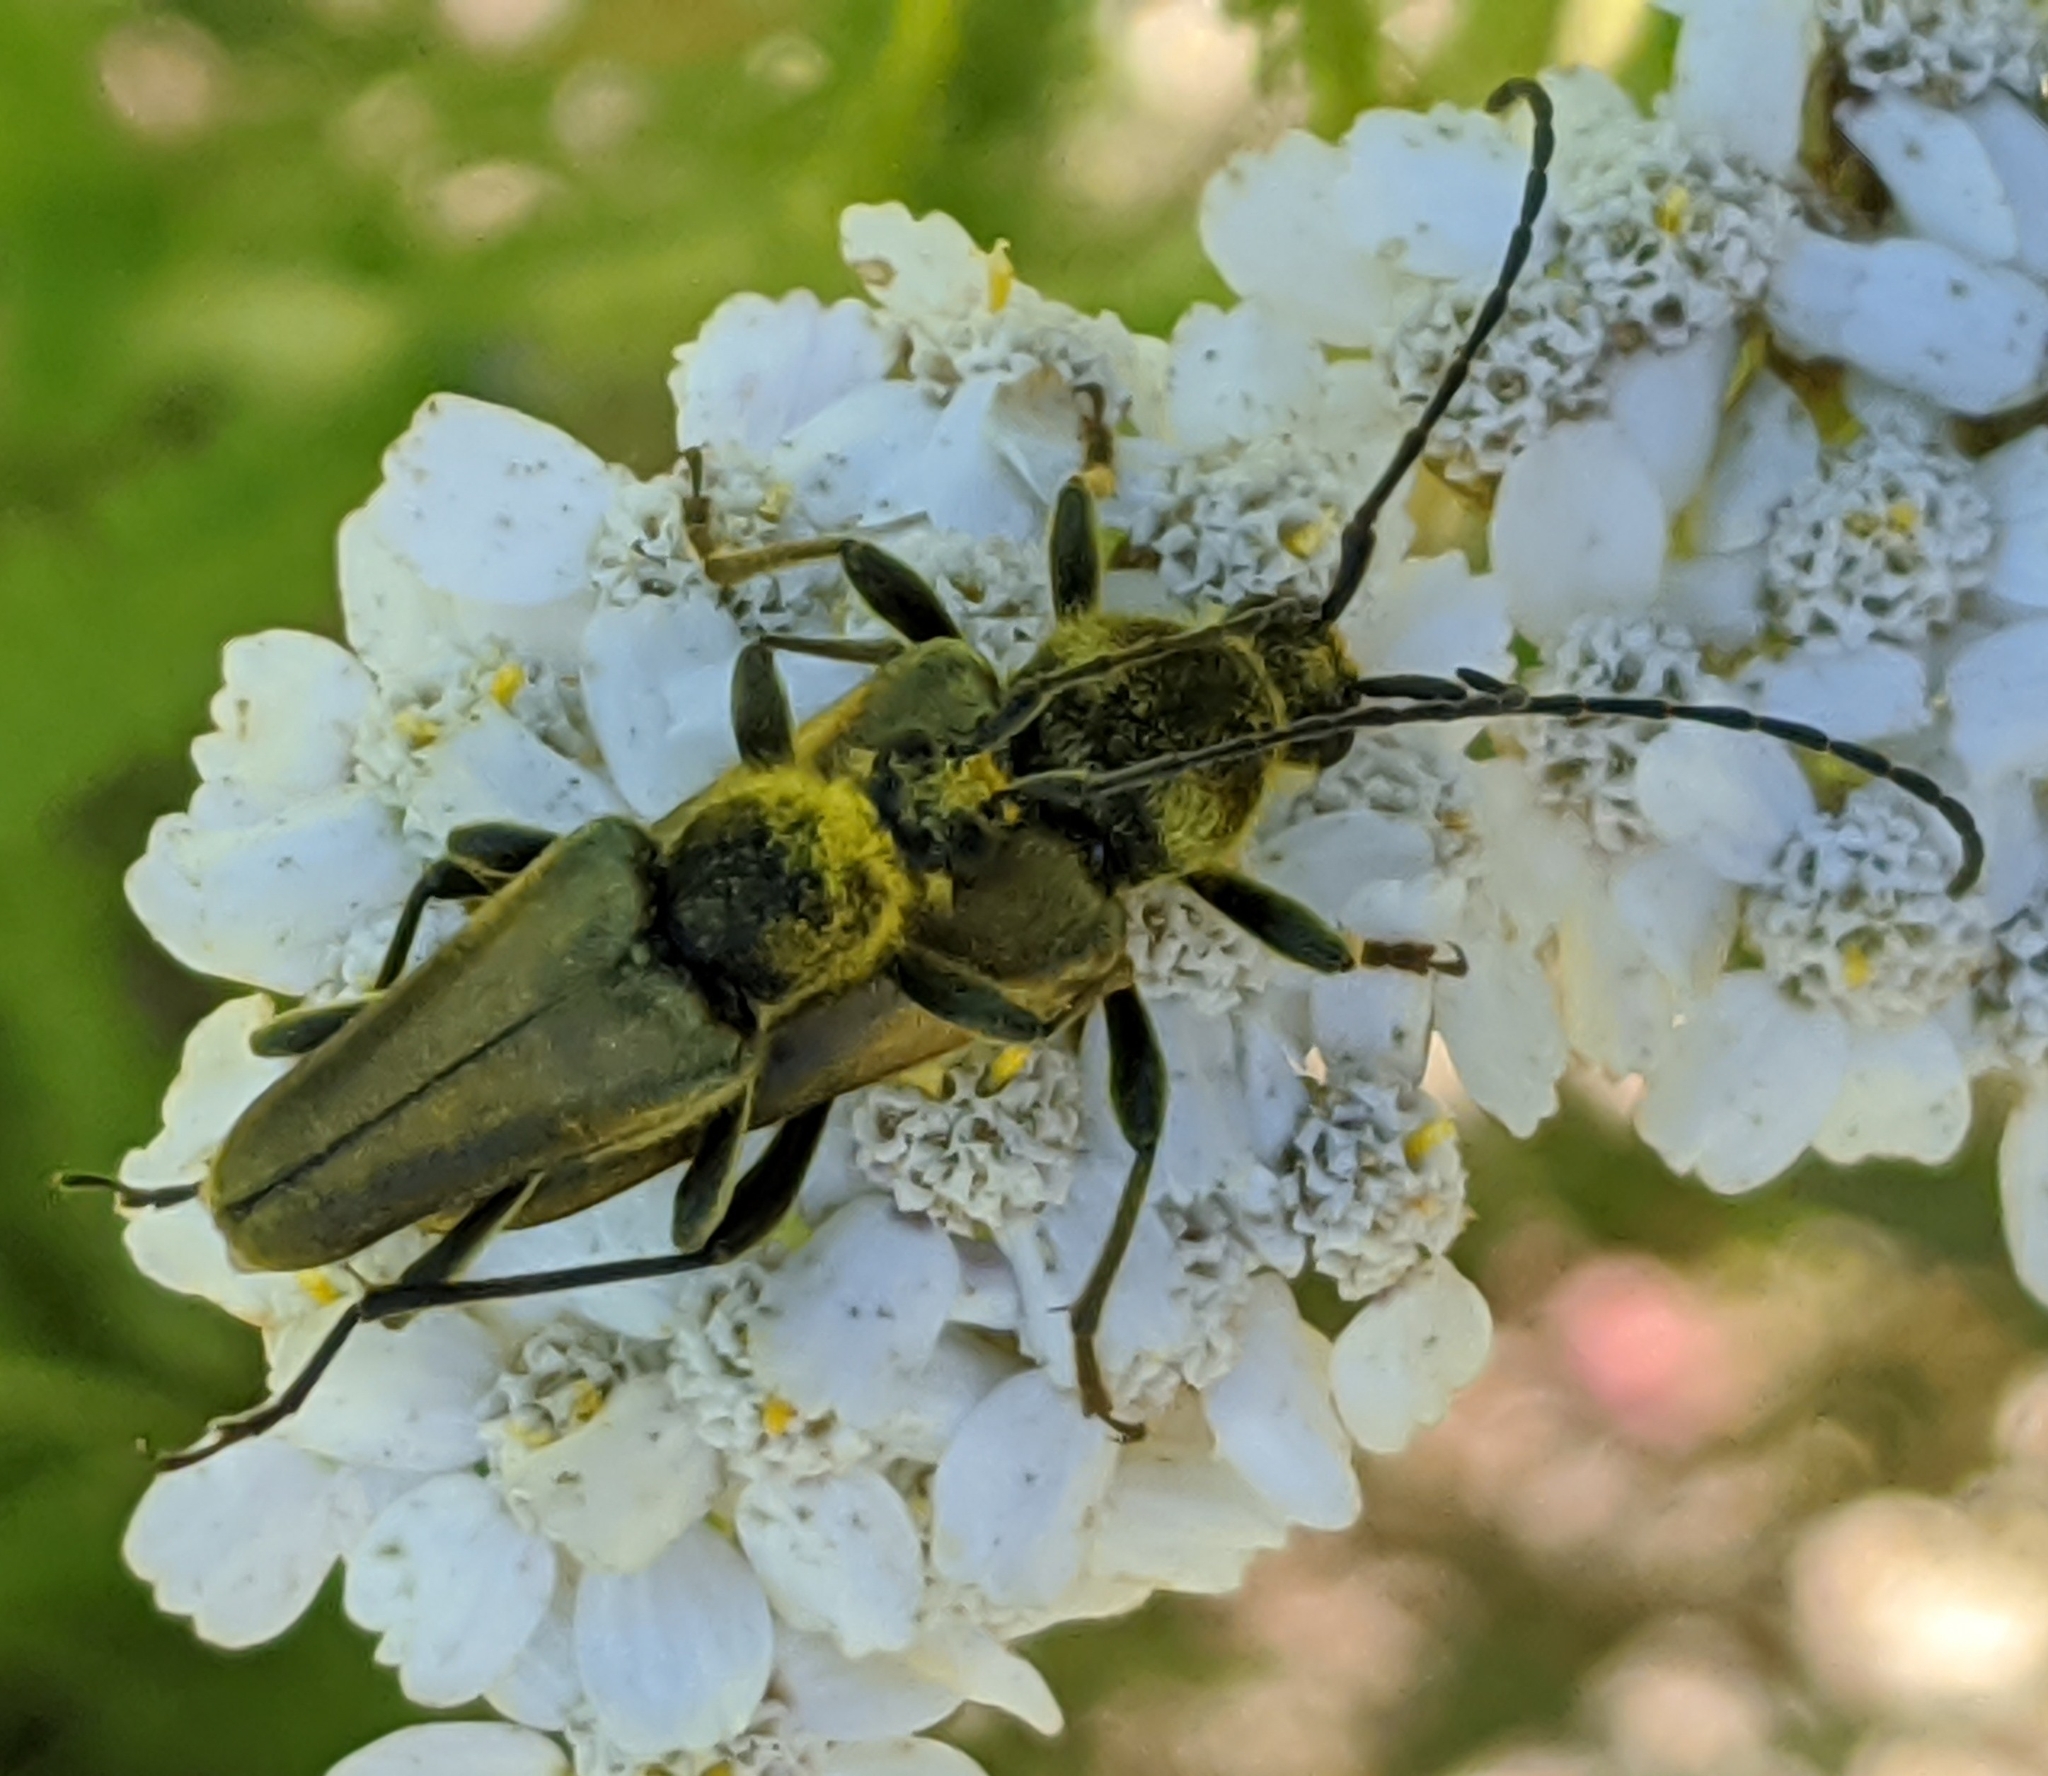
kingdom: Animalia
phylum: Arthropoda
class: Insecta
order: Coleoptera
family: Cerambycidae
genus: Cosmosalia
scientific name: Cosmosalia chrysocoma
